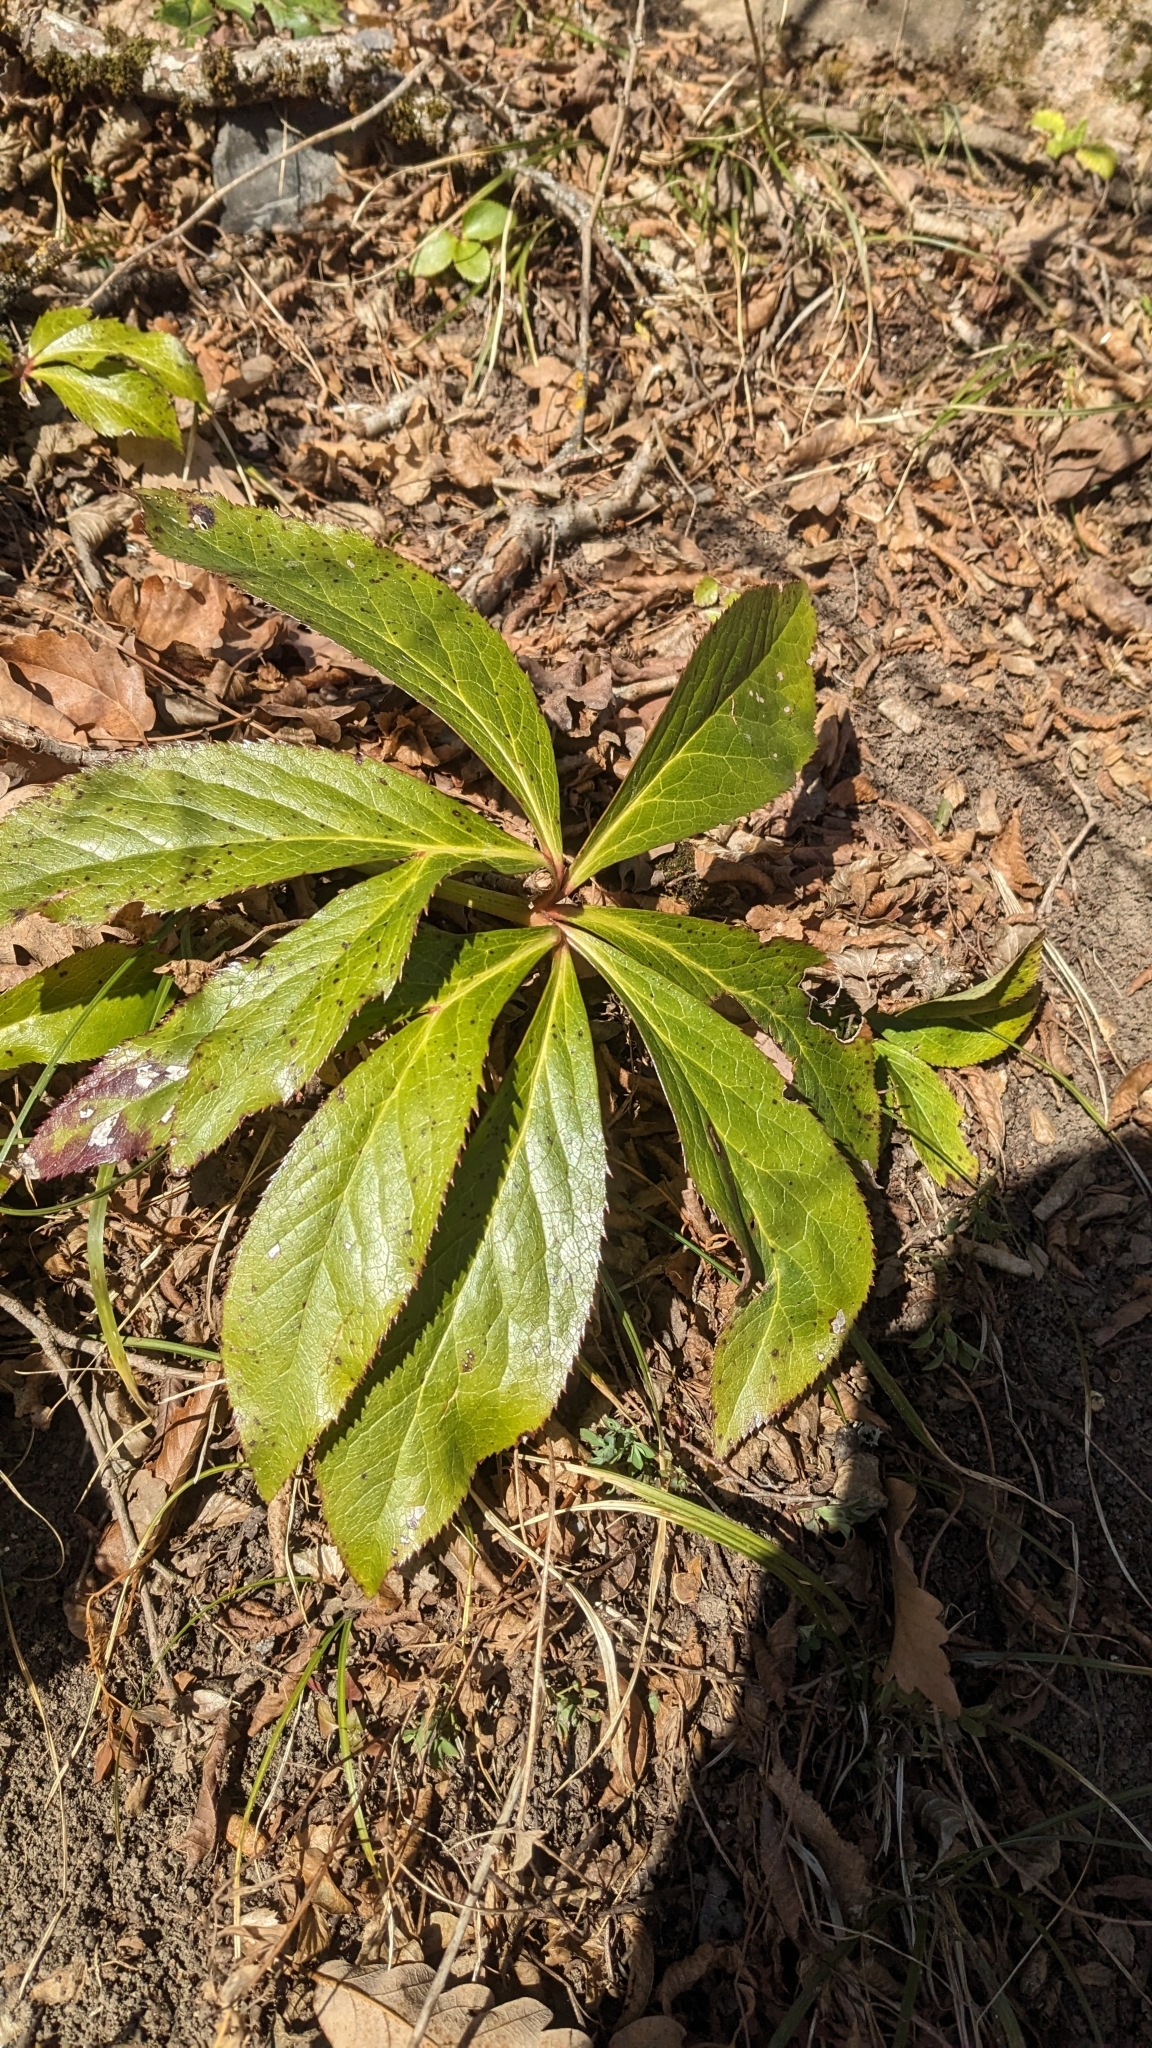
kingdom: Plantae
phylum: Tracheophyta
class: Magnoliopsida
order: Ranunculales
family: Ranunculaceae
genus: Helleborus
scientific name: Helleborus orientalis
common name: Lenten-rose
